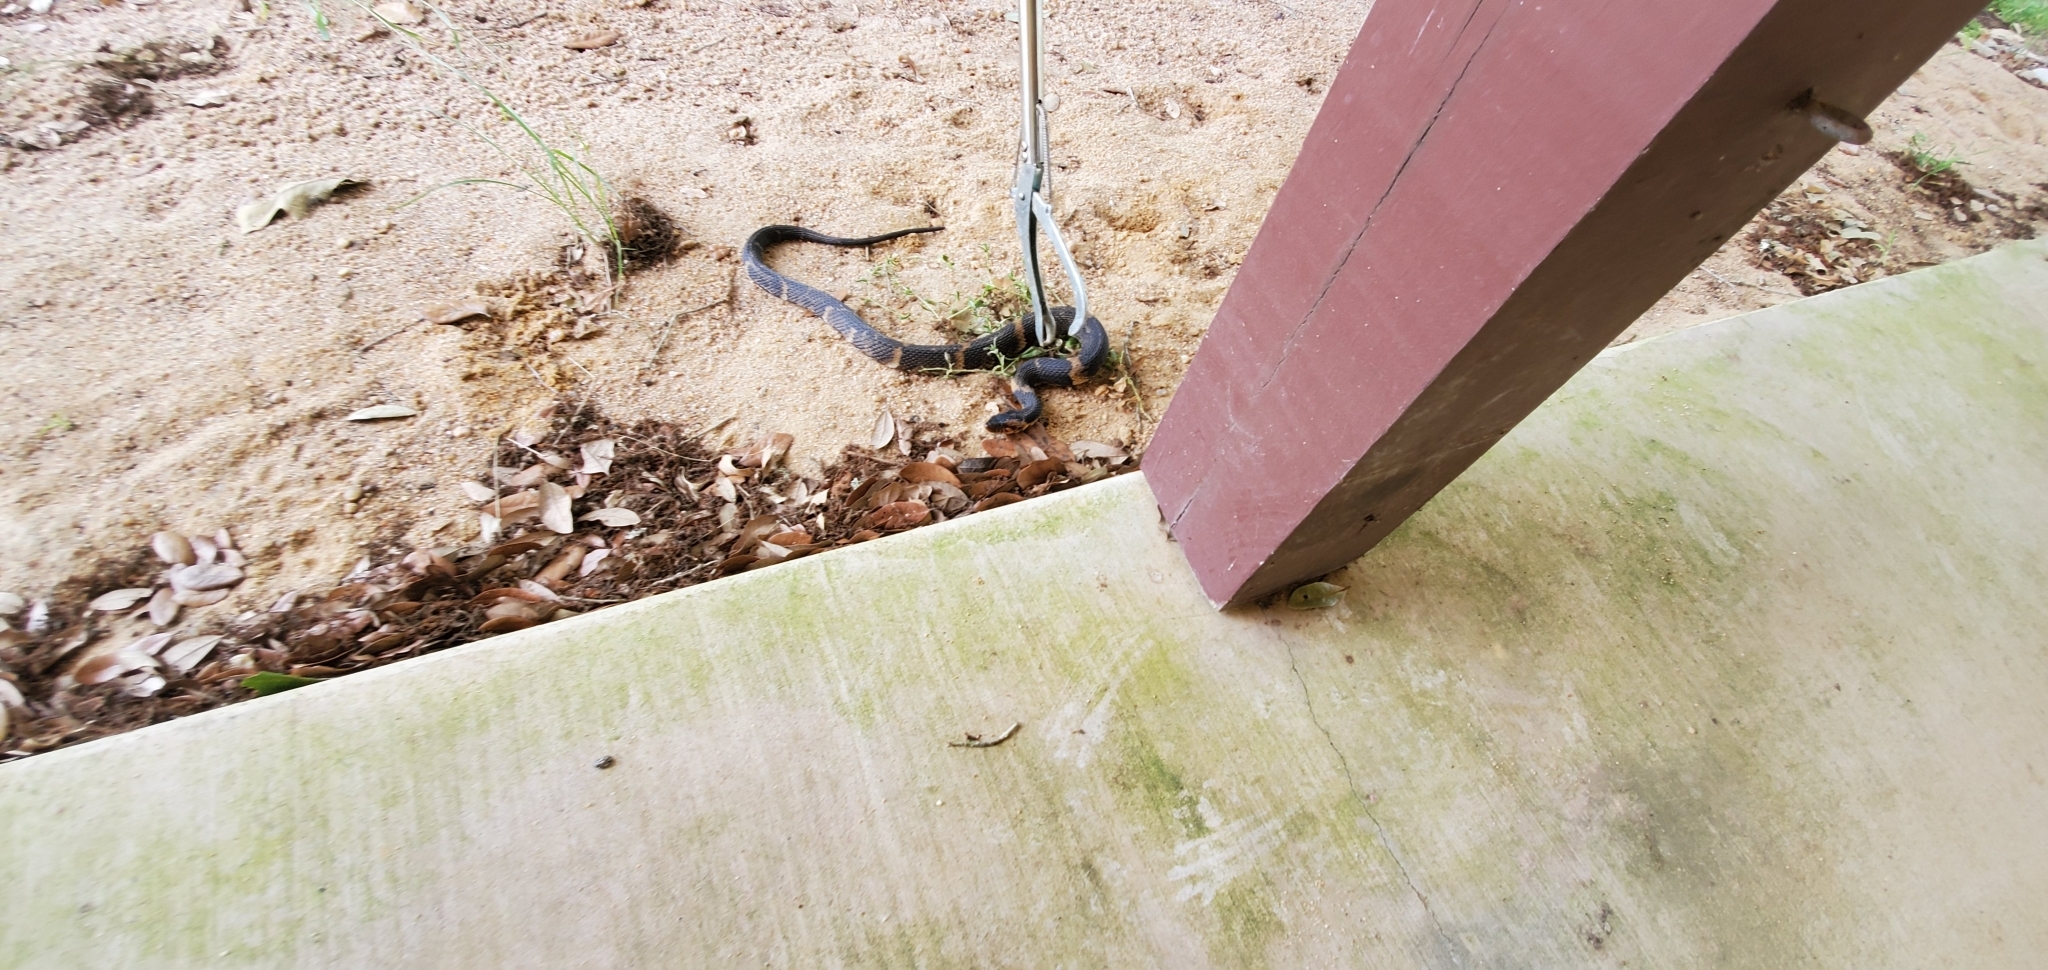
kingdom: Animalia
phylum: Chordata
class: Squamata
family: Colubridae
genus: Nerodia
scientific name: Nerodia fasciata
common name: Southern water snake
